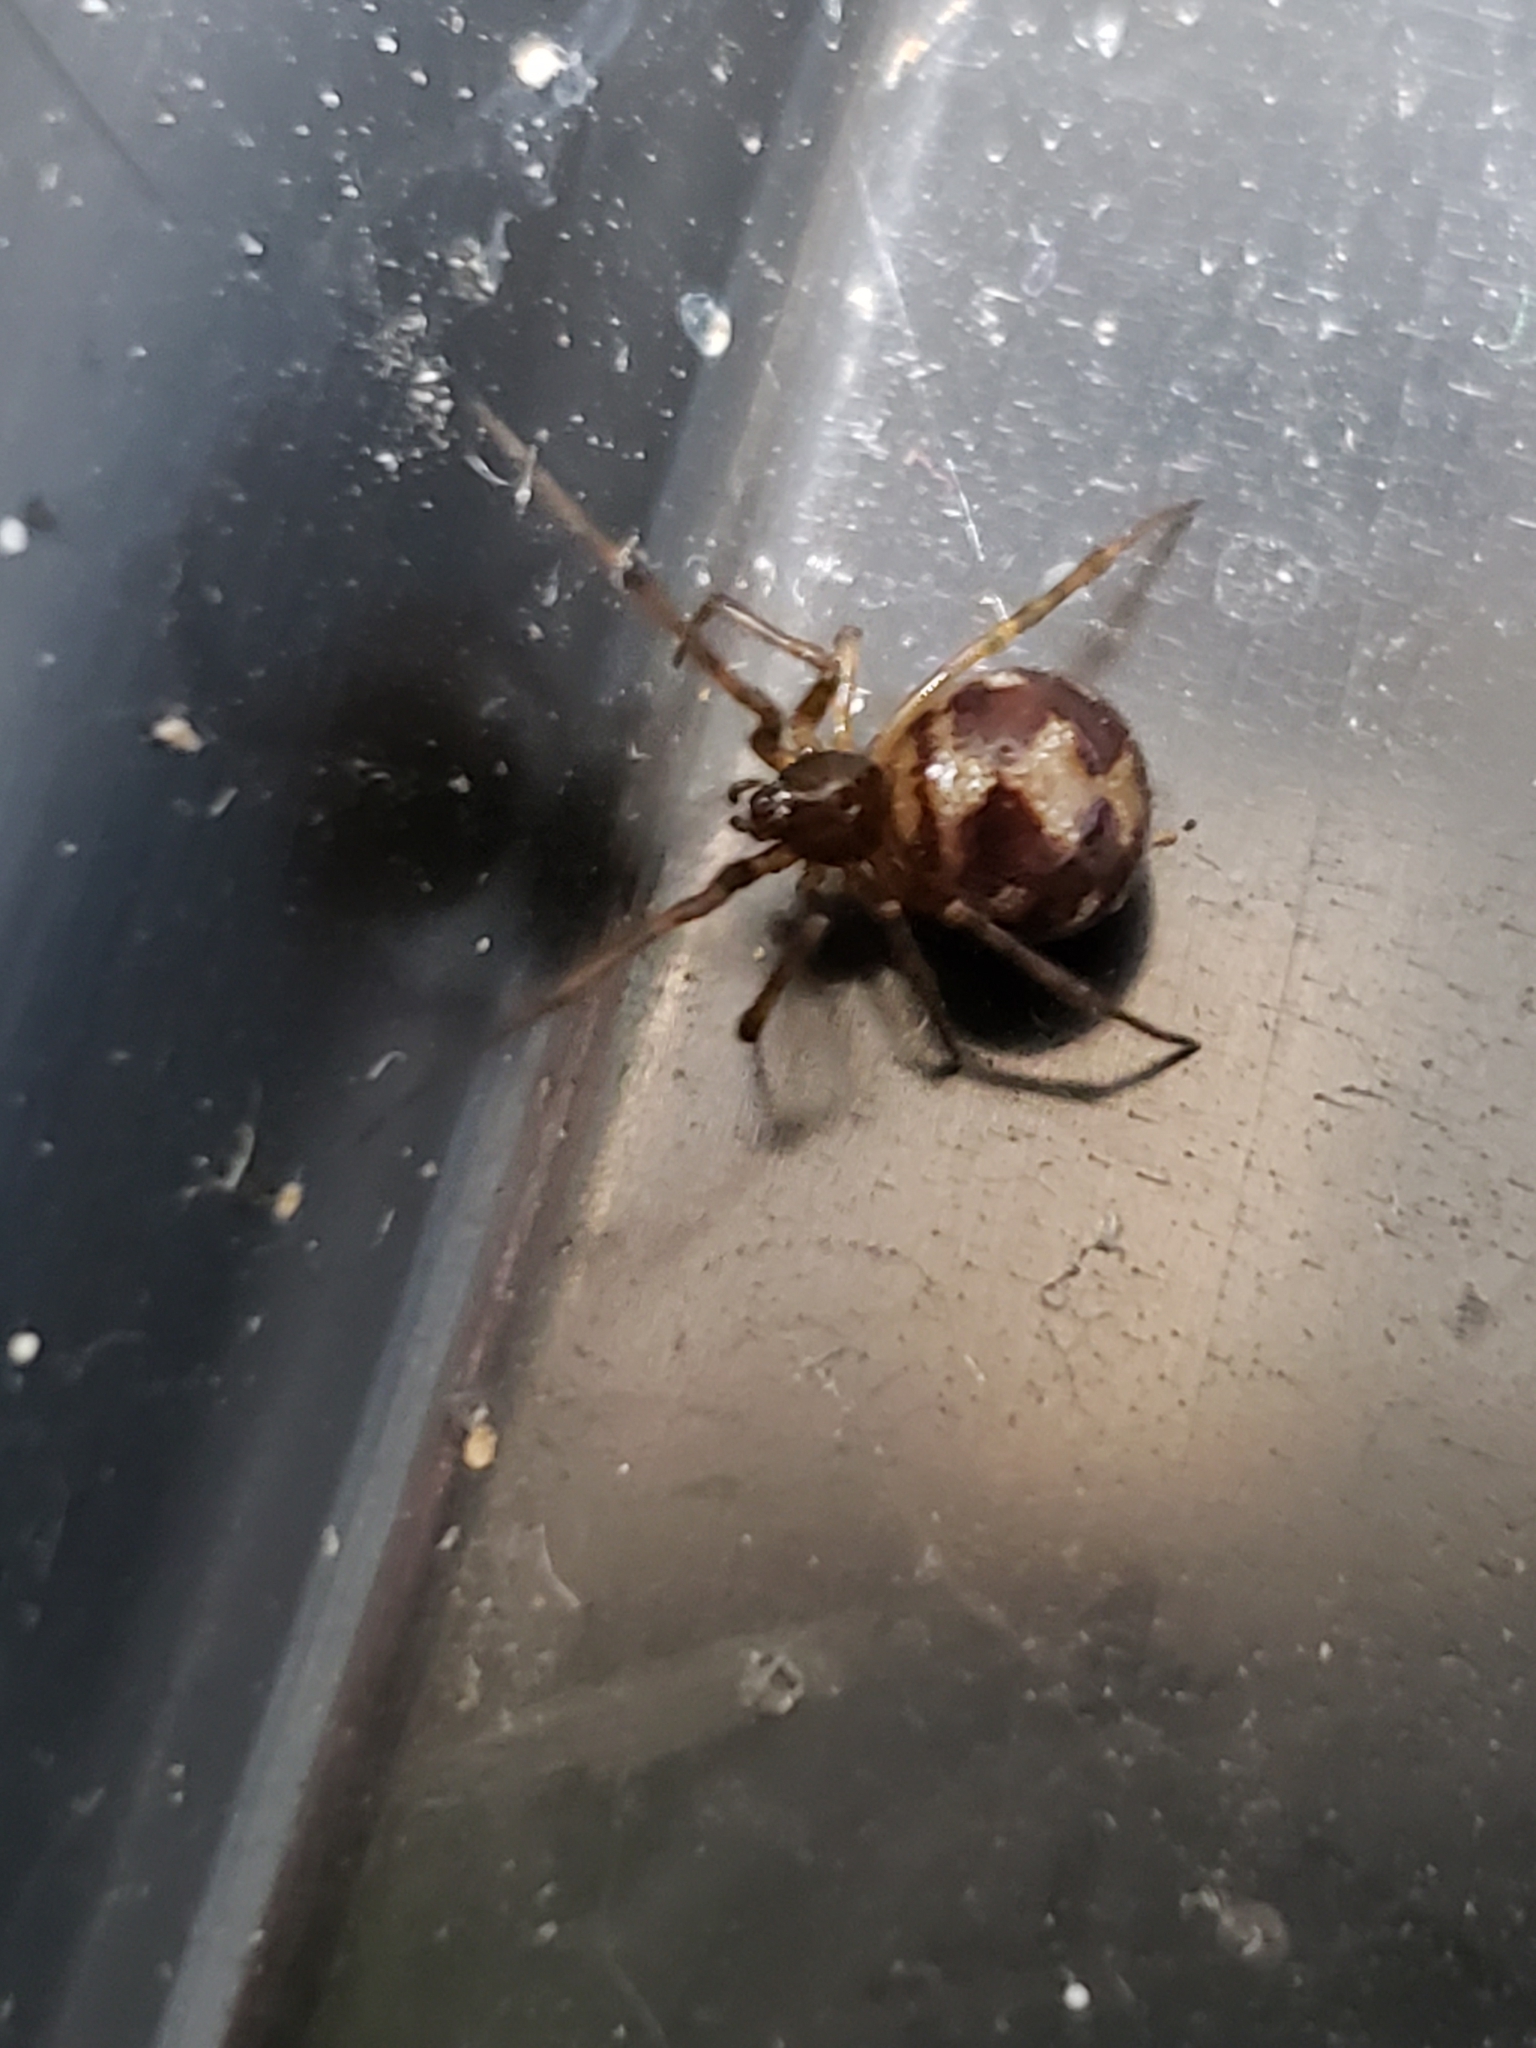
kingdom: Animalia
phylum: Arthropoda
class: Arachnida
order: Araneae
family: Theridiidae
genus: Steatoda
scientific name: Steatoda triangulosa
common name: Triangulate bud spider
